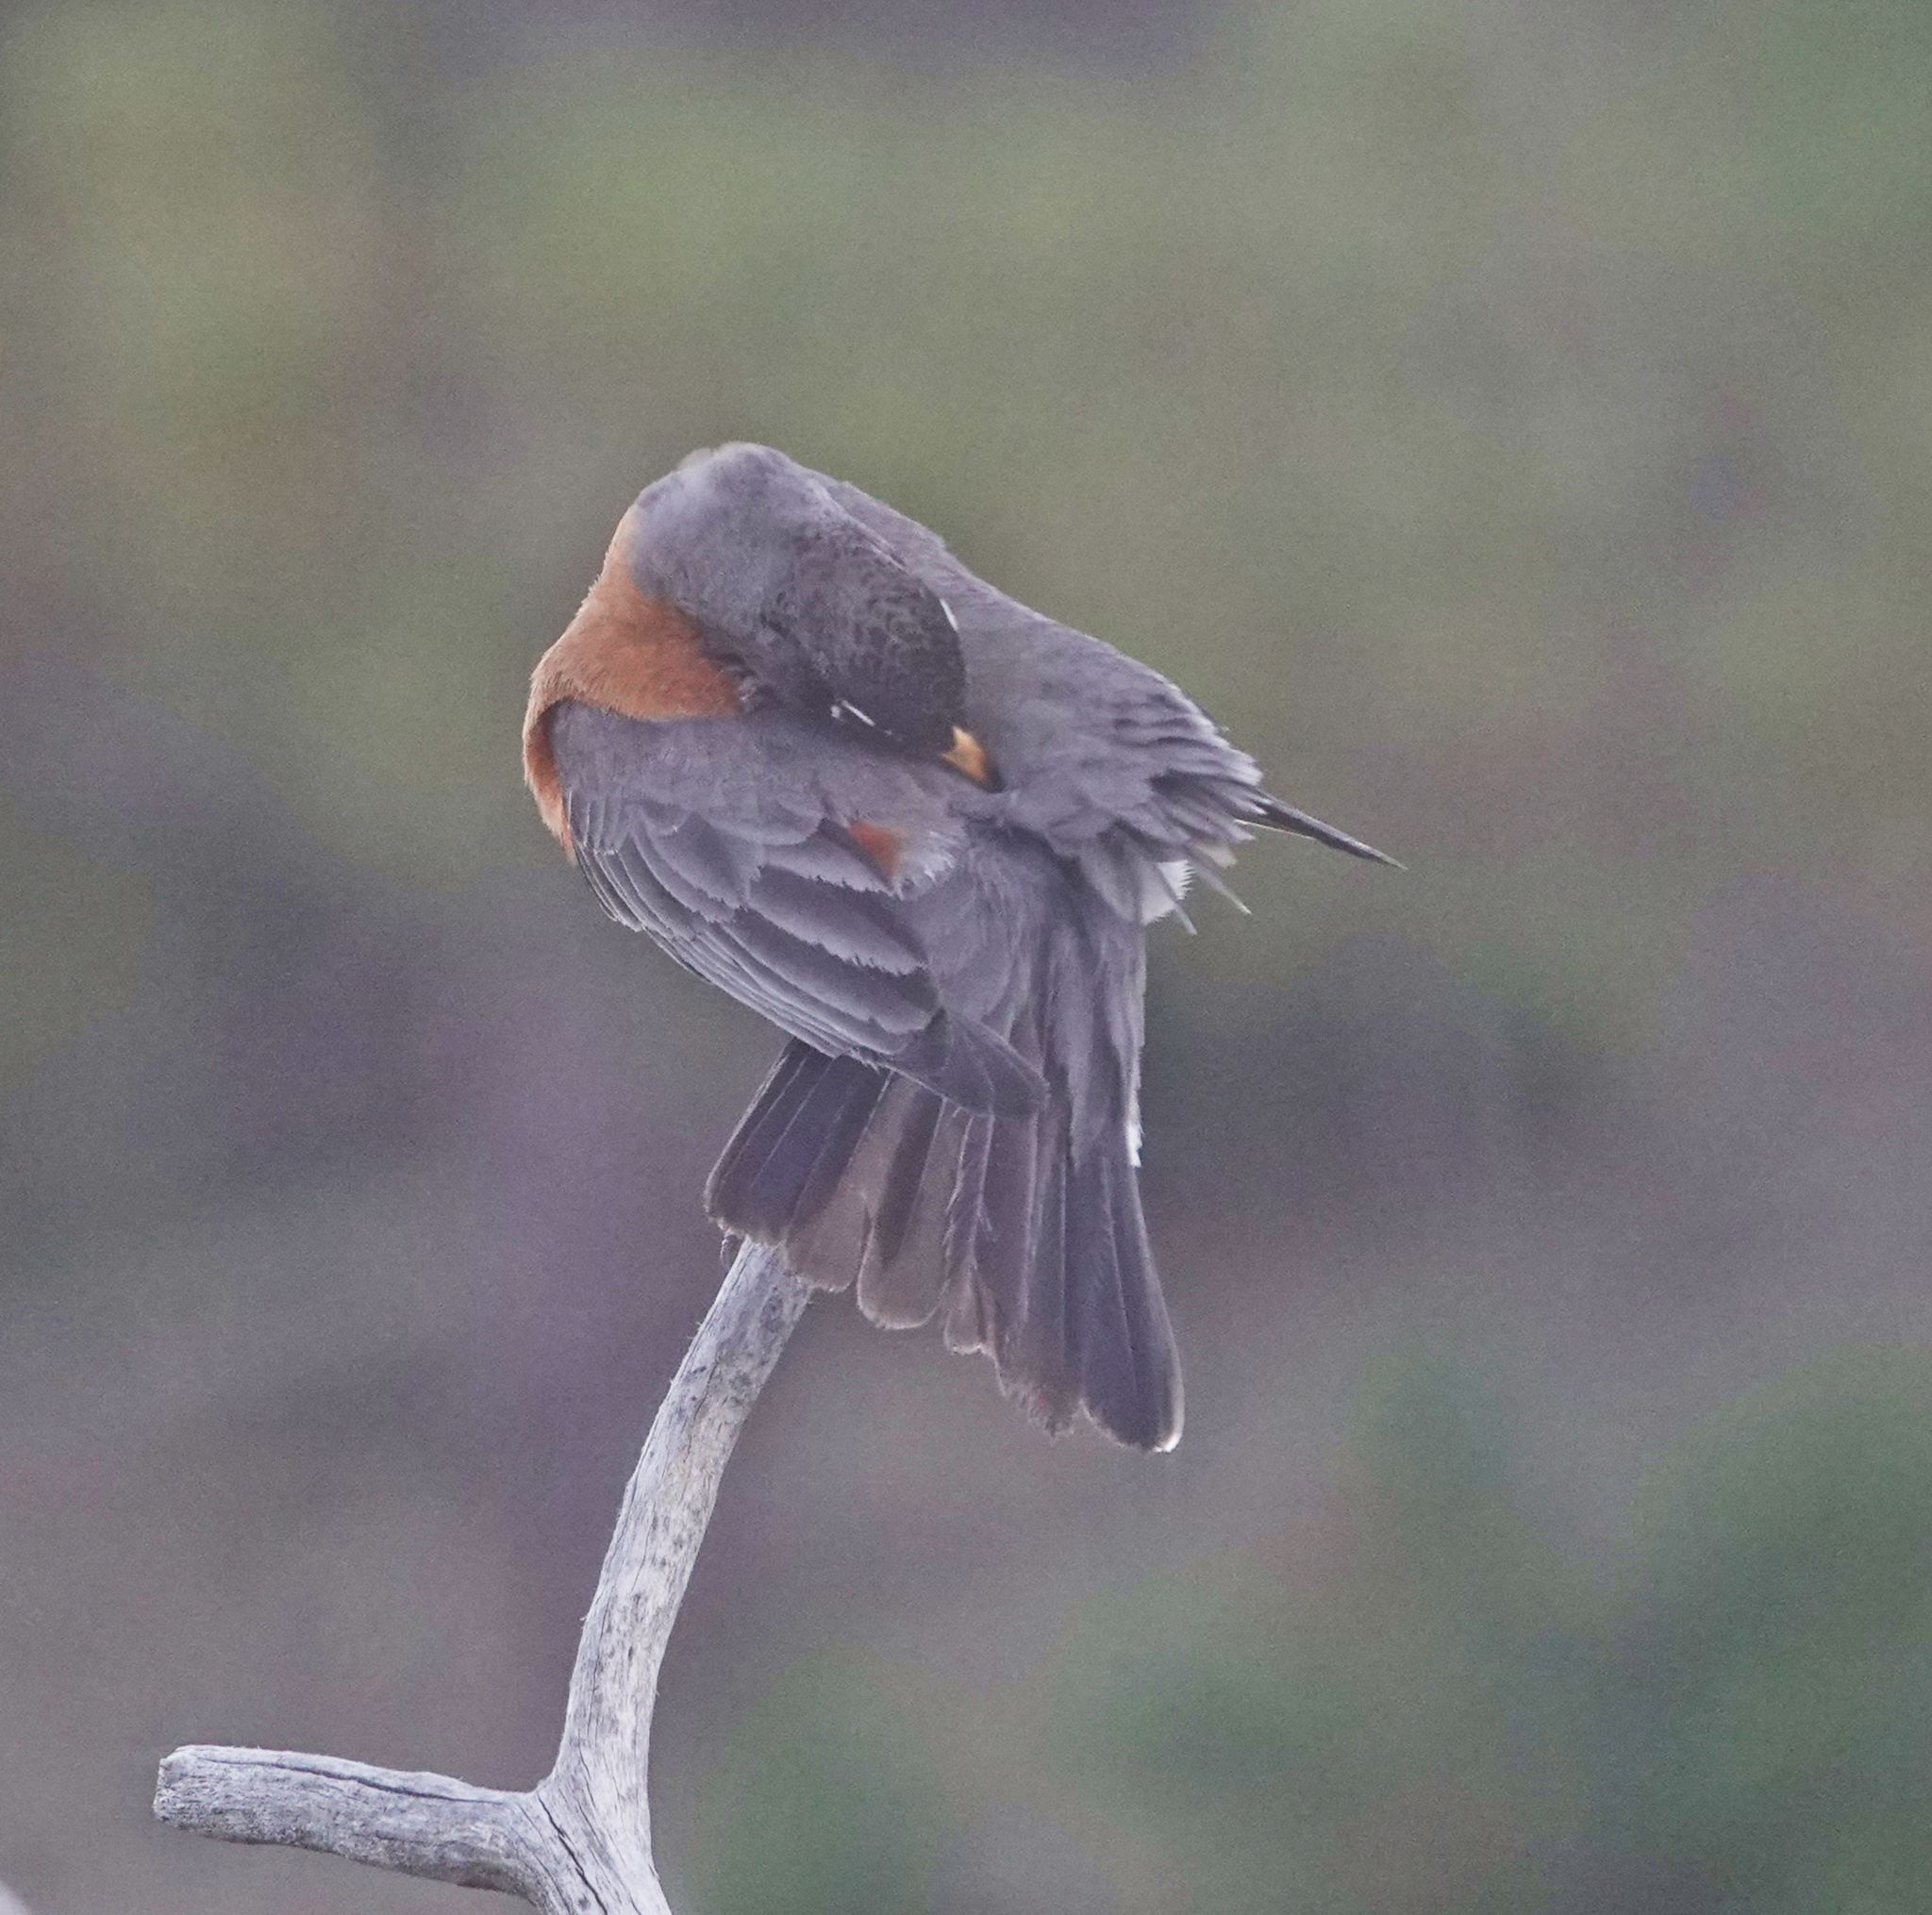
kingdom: Animalia
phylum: Chordata
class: Aves
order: Passeriformes
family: Turdidae
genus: Turdus
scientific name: Turdus migratorius
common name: American robin
